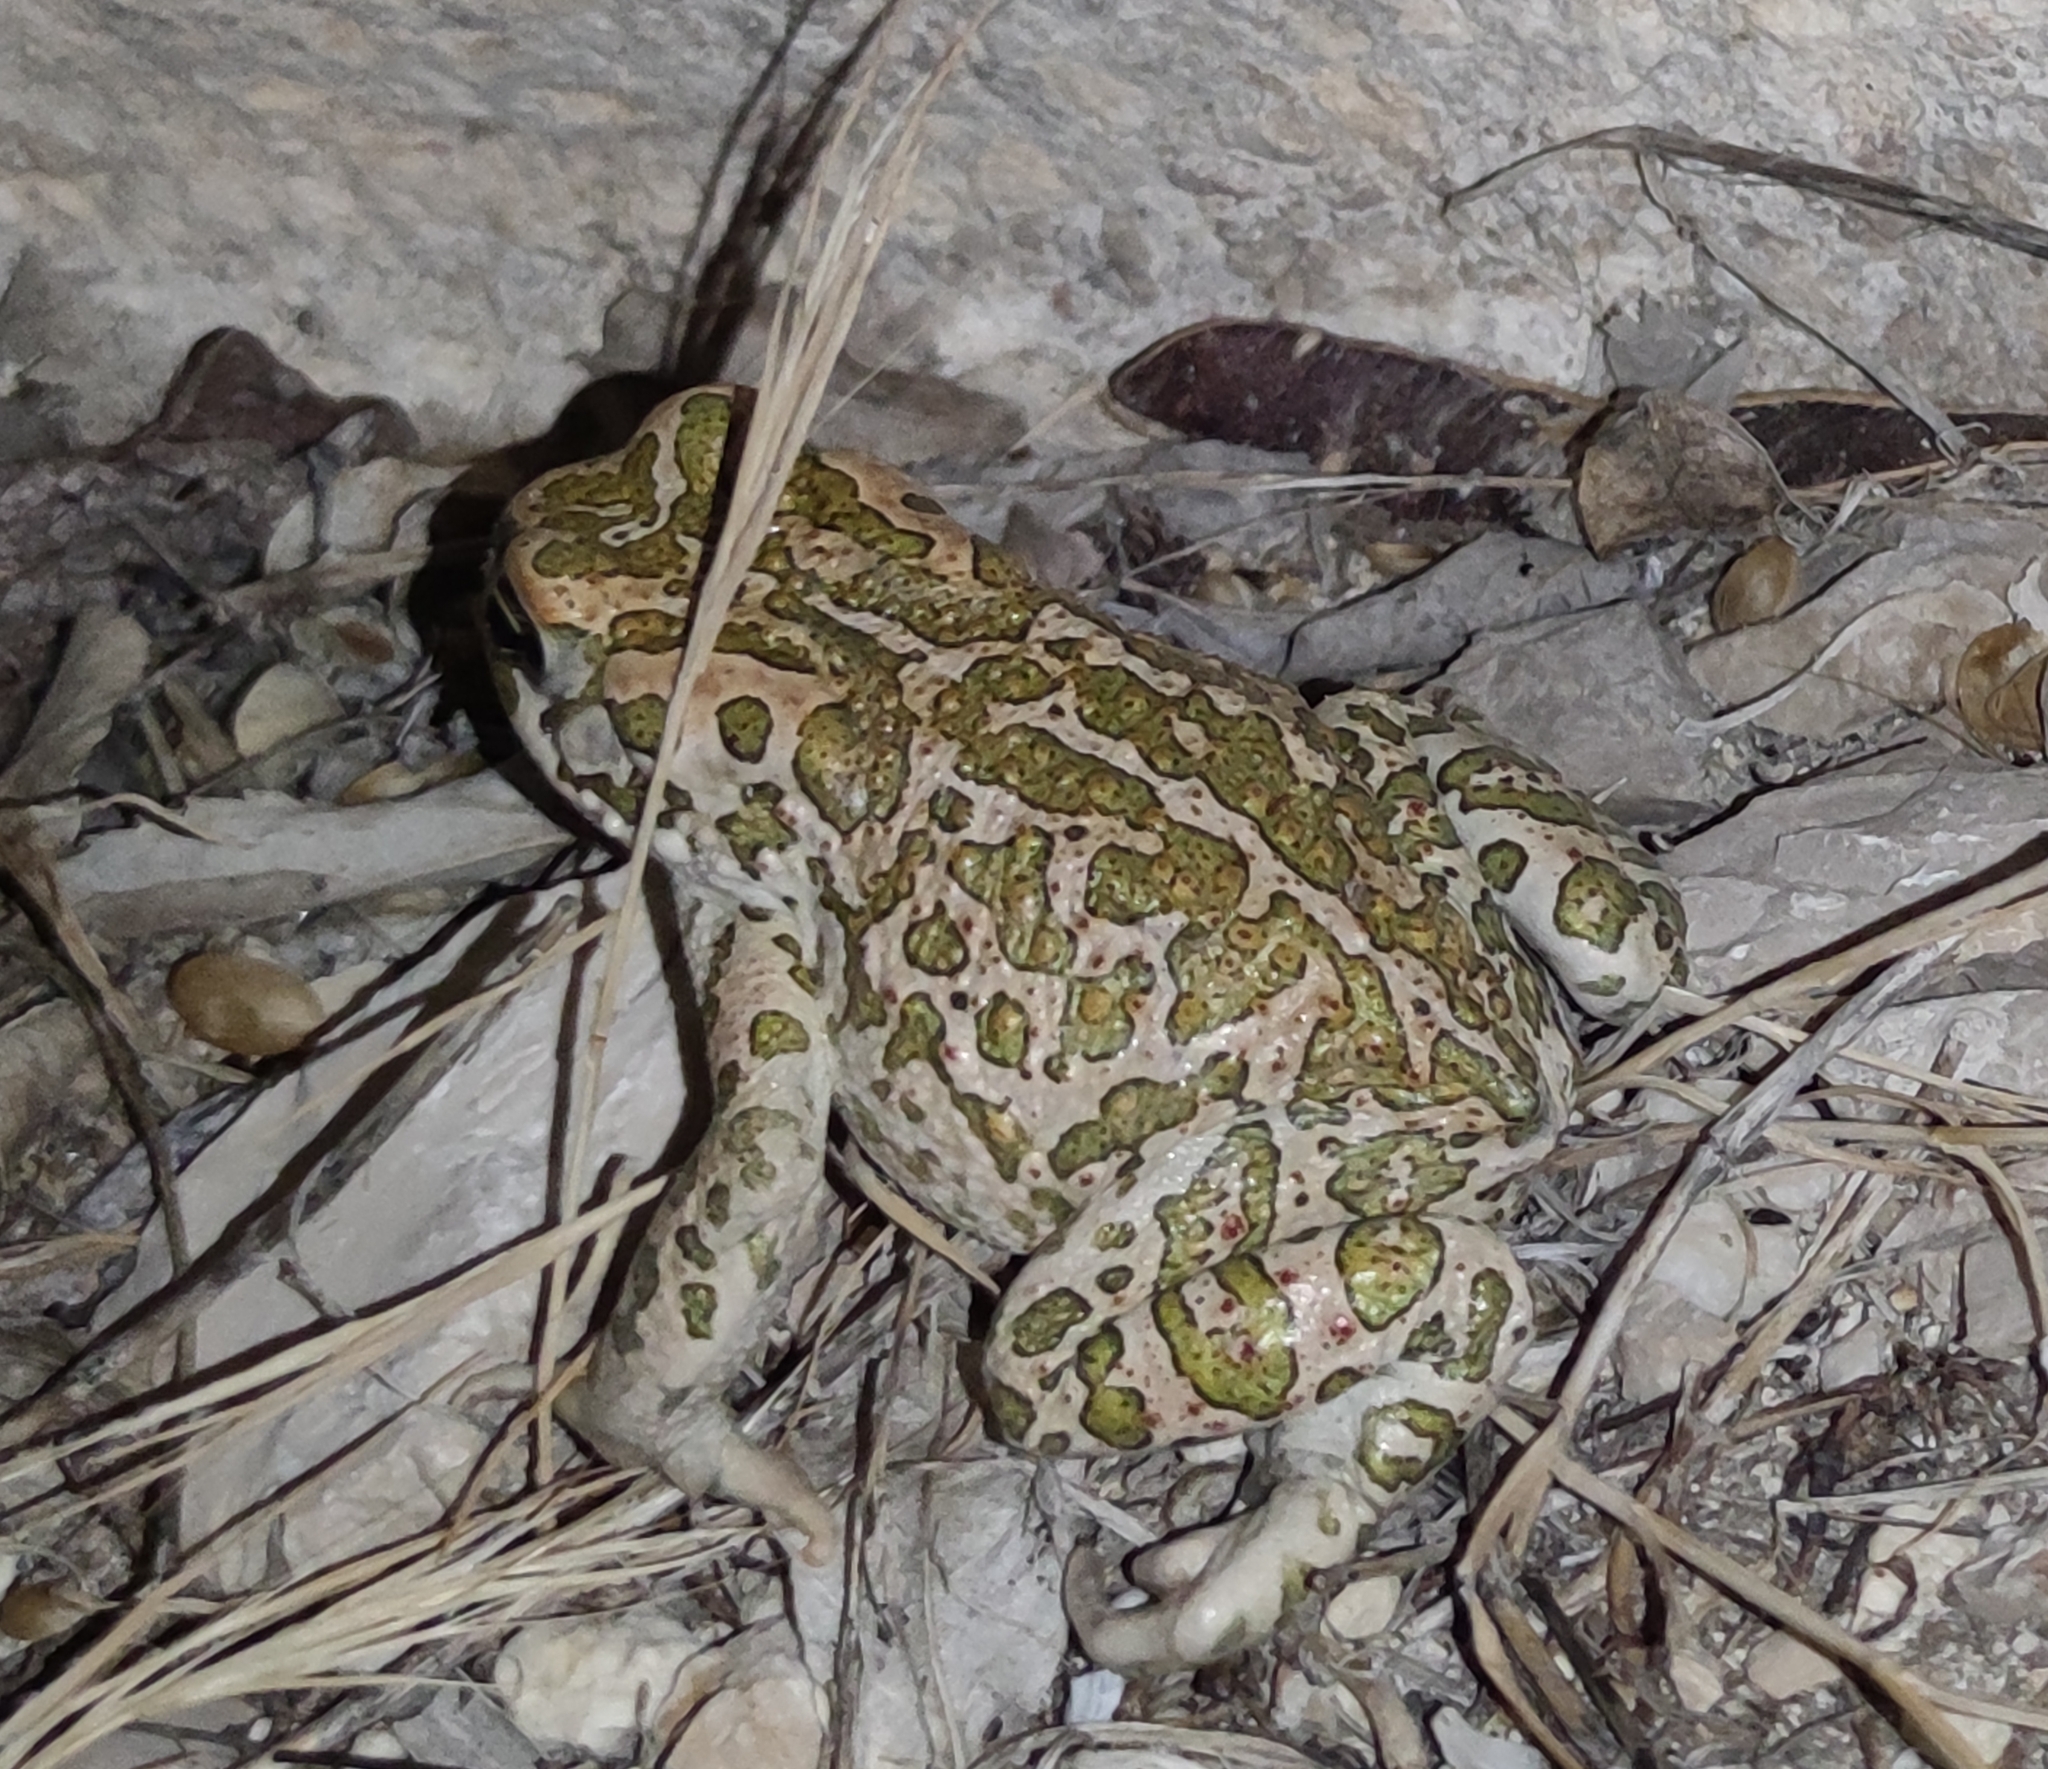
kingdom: Animalia
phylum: Chordata
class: Amphibia
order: Anura
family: Bufonidae
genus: Bufotes
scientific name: Bufotes viridis
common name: European green toad
